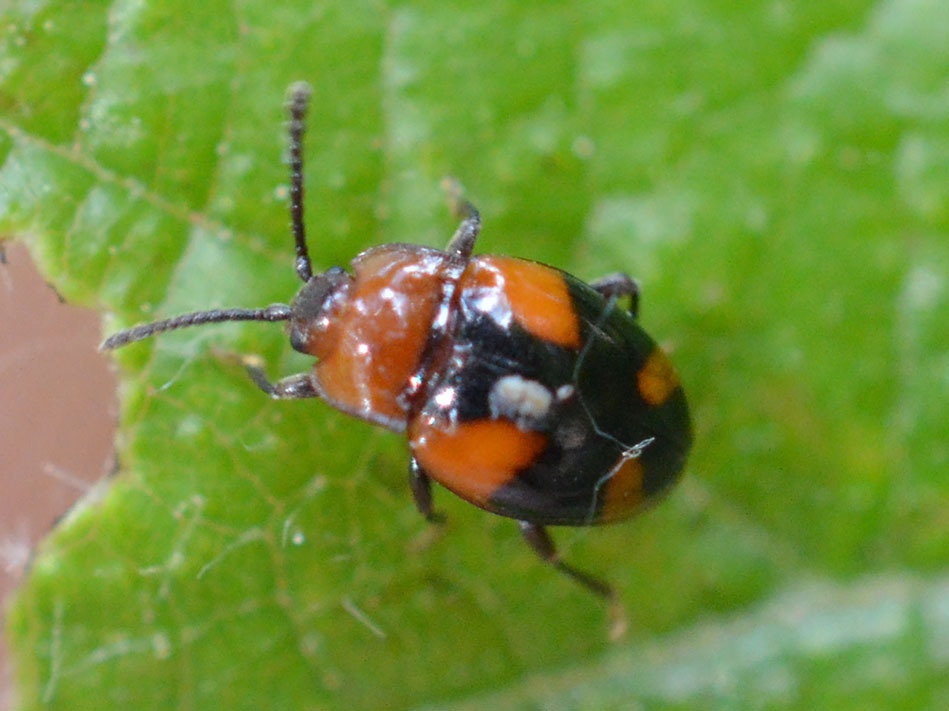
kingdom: Animalia
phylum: Arthropoda
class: Insecta
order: Coleoptera
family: Endomychidae
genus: Mycetina
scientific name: Mycetina cruciata
